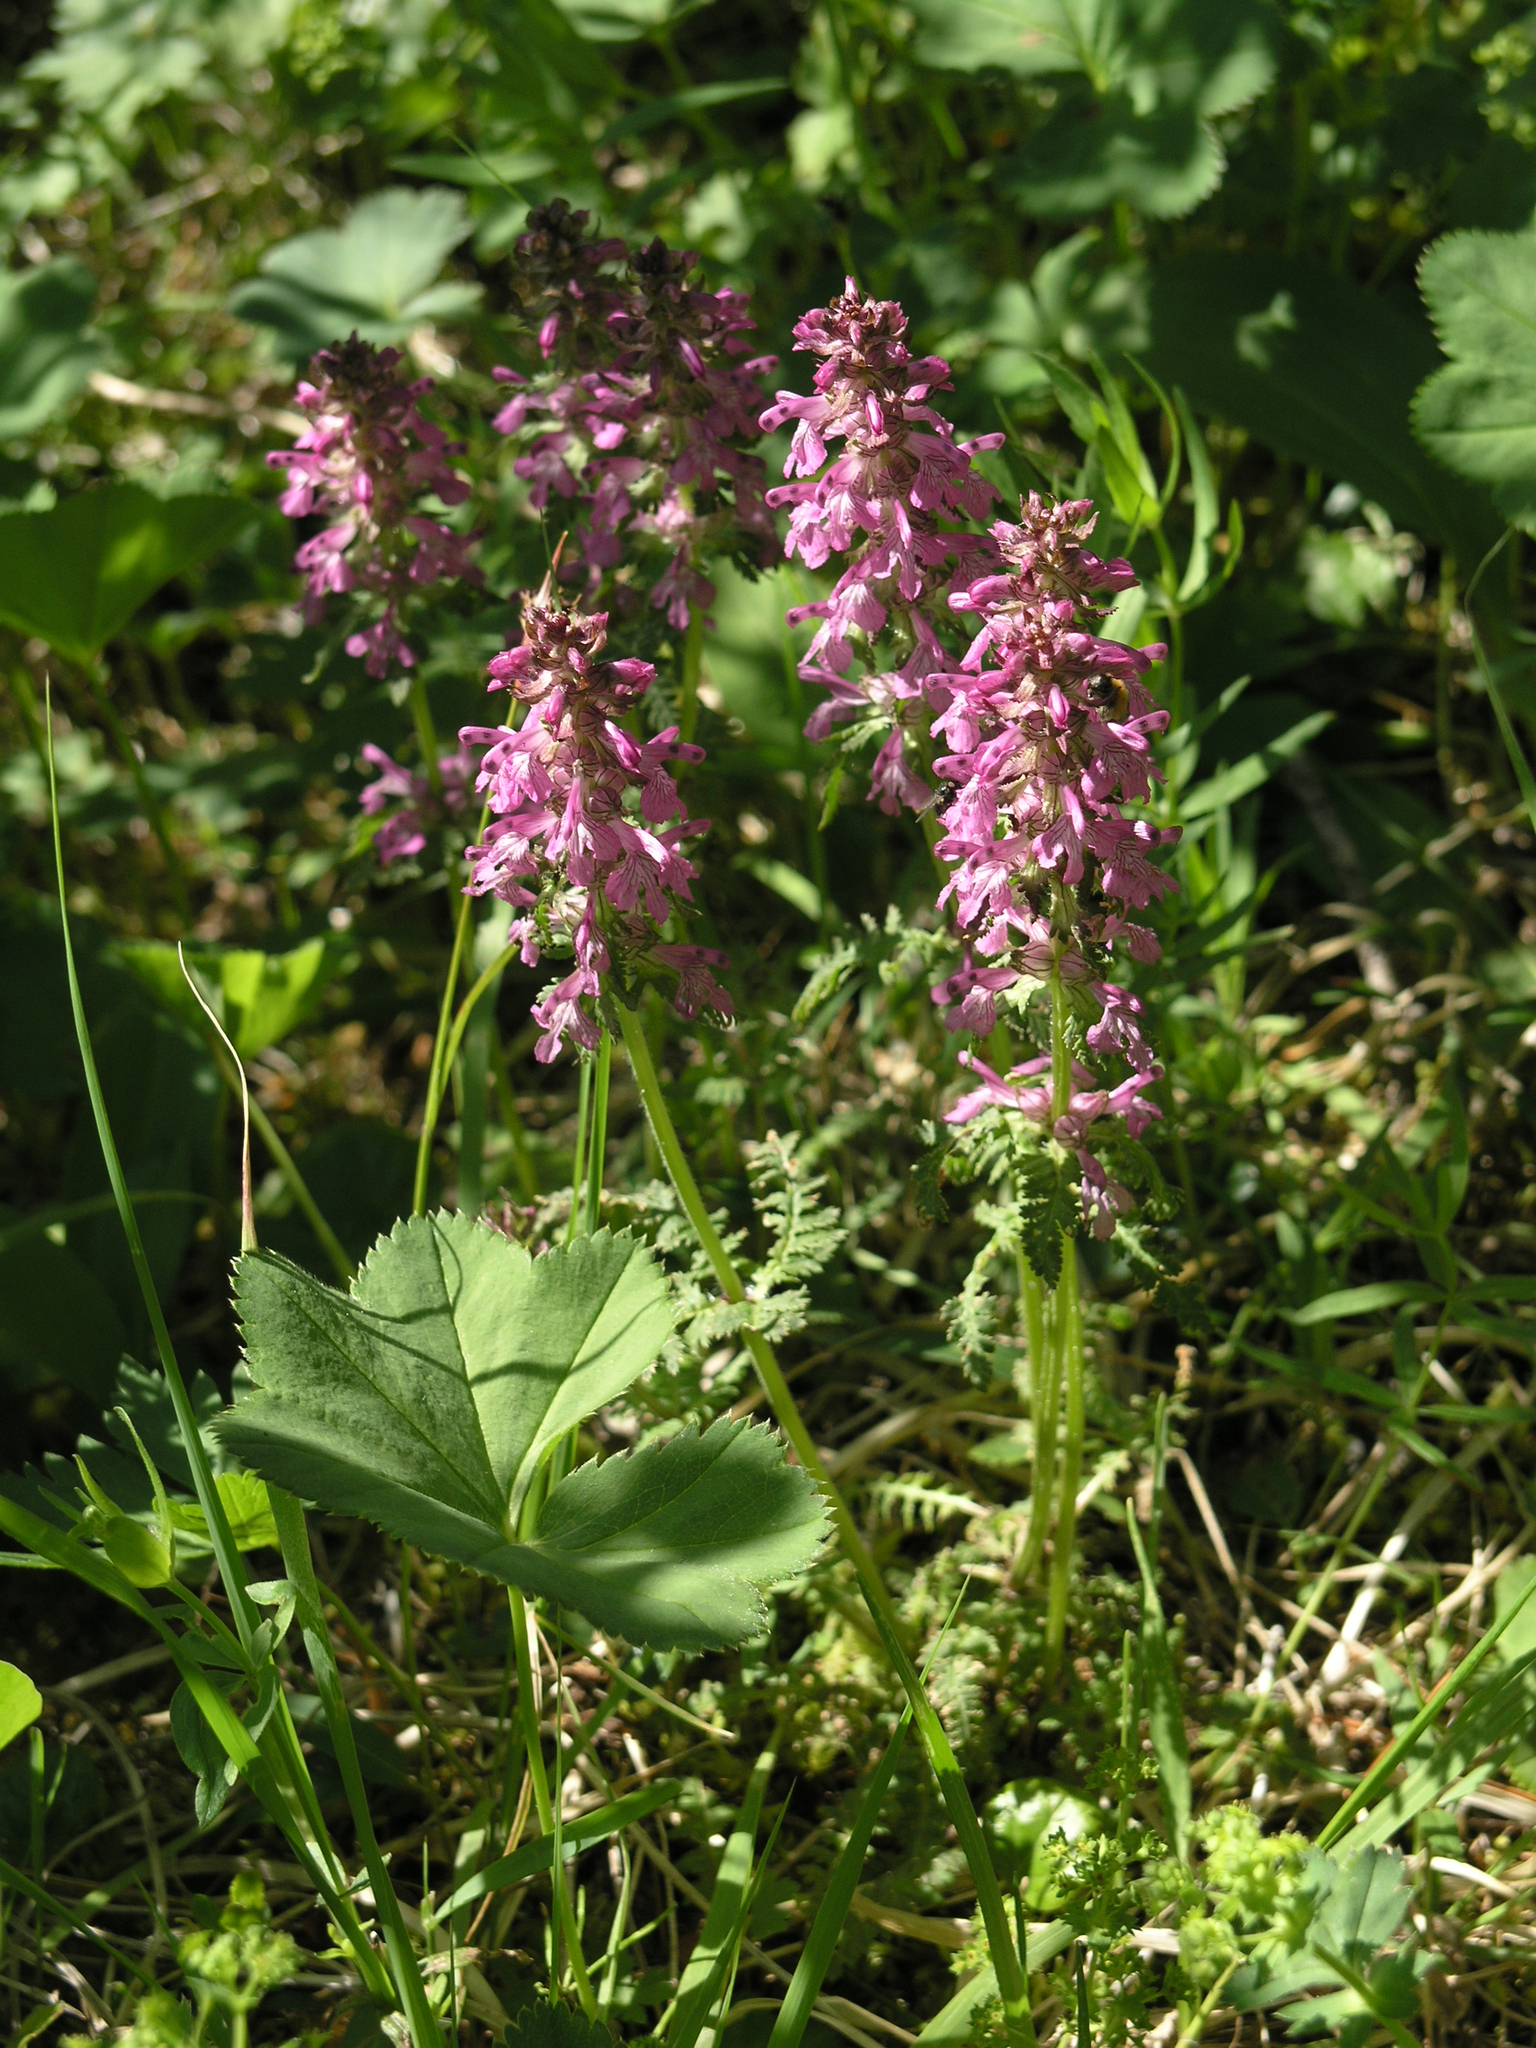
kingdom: Plantae
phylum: Tracheophyta
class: Magnoliopsida
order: Lamiales
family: Orobanchaceae
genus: Pedicularis
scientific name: Pedicularis verticillata
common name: Whorled lousewort
